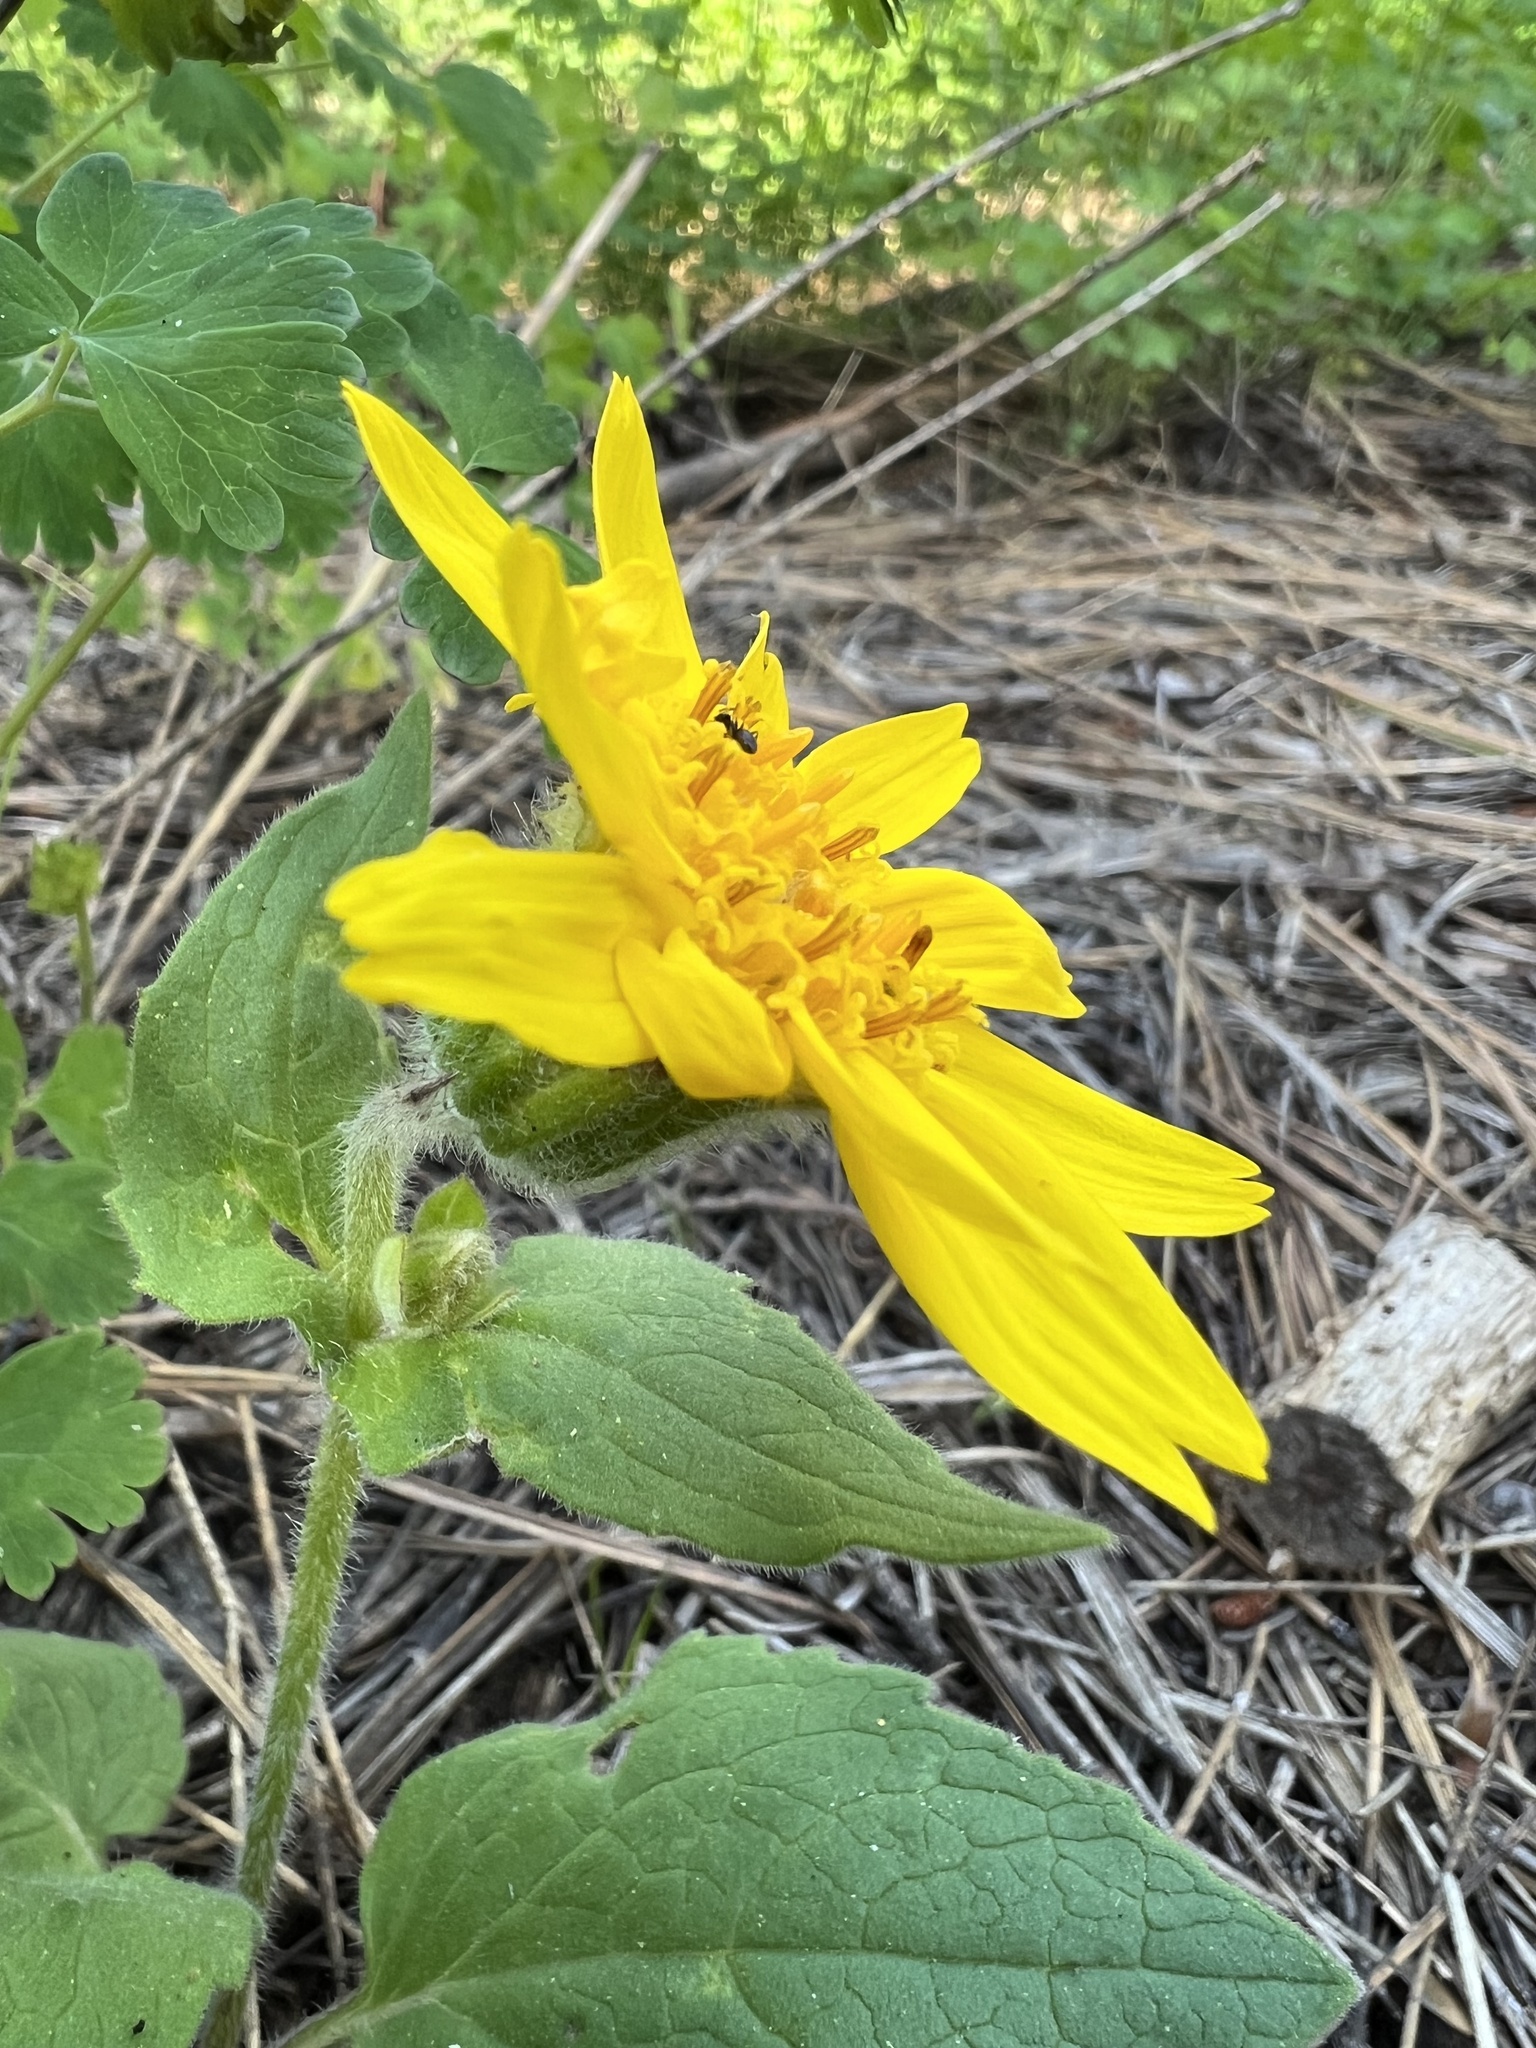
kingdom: Plantae
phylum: Tracheophyta
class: Magnoliopsida
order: Asterales
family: Asteraceae
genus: Arnica
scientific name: Arnica cordifolia
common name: Heart-leaf arnica
